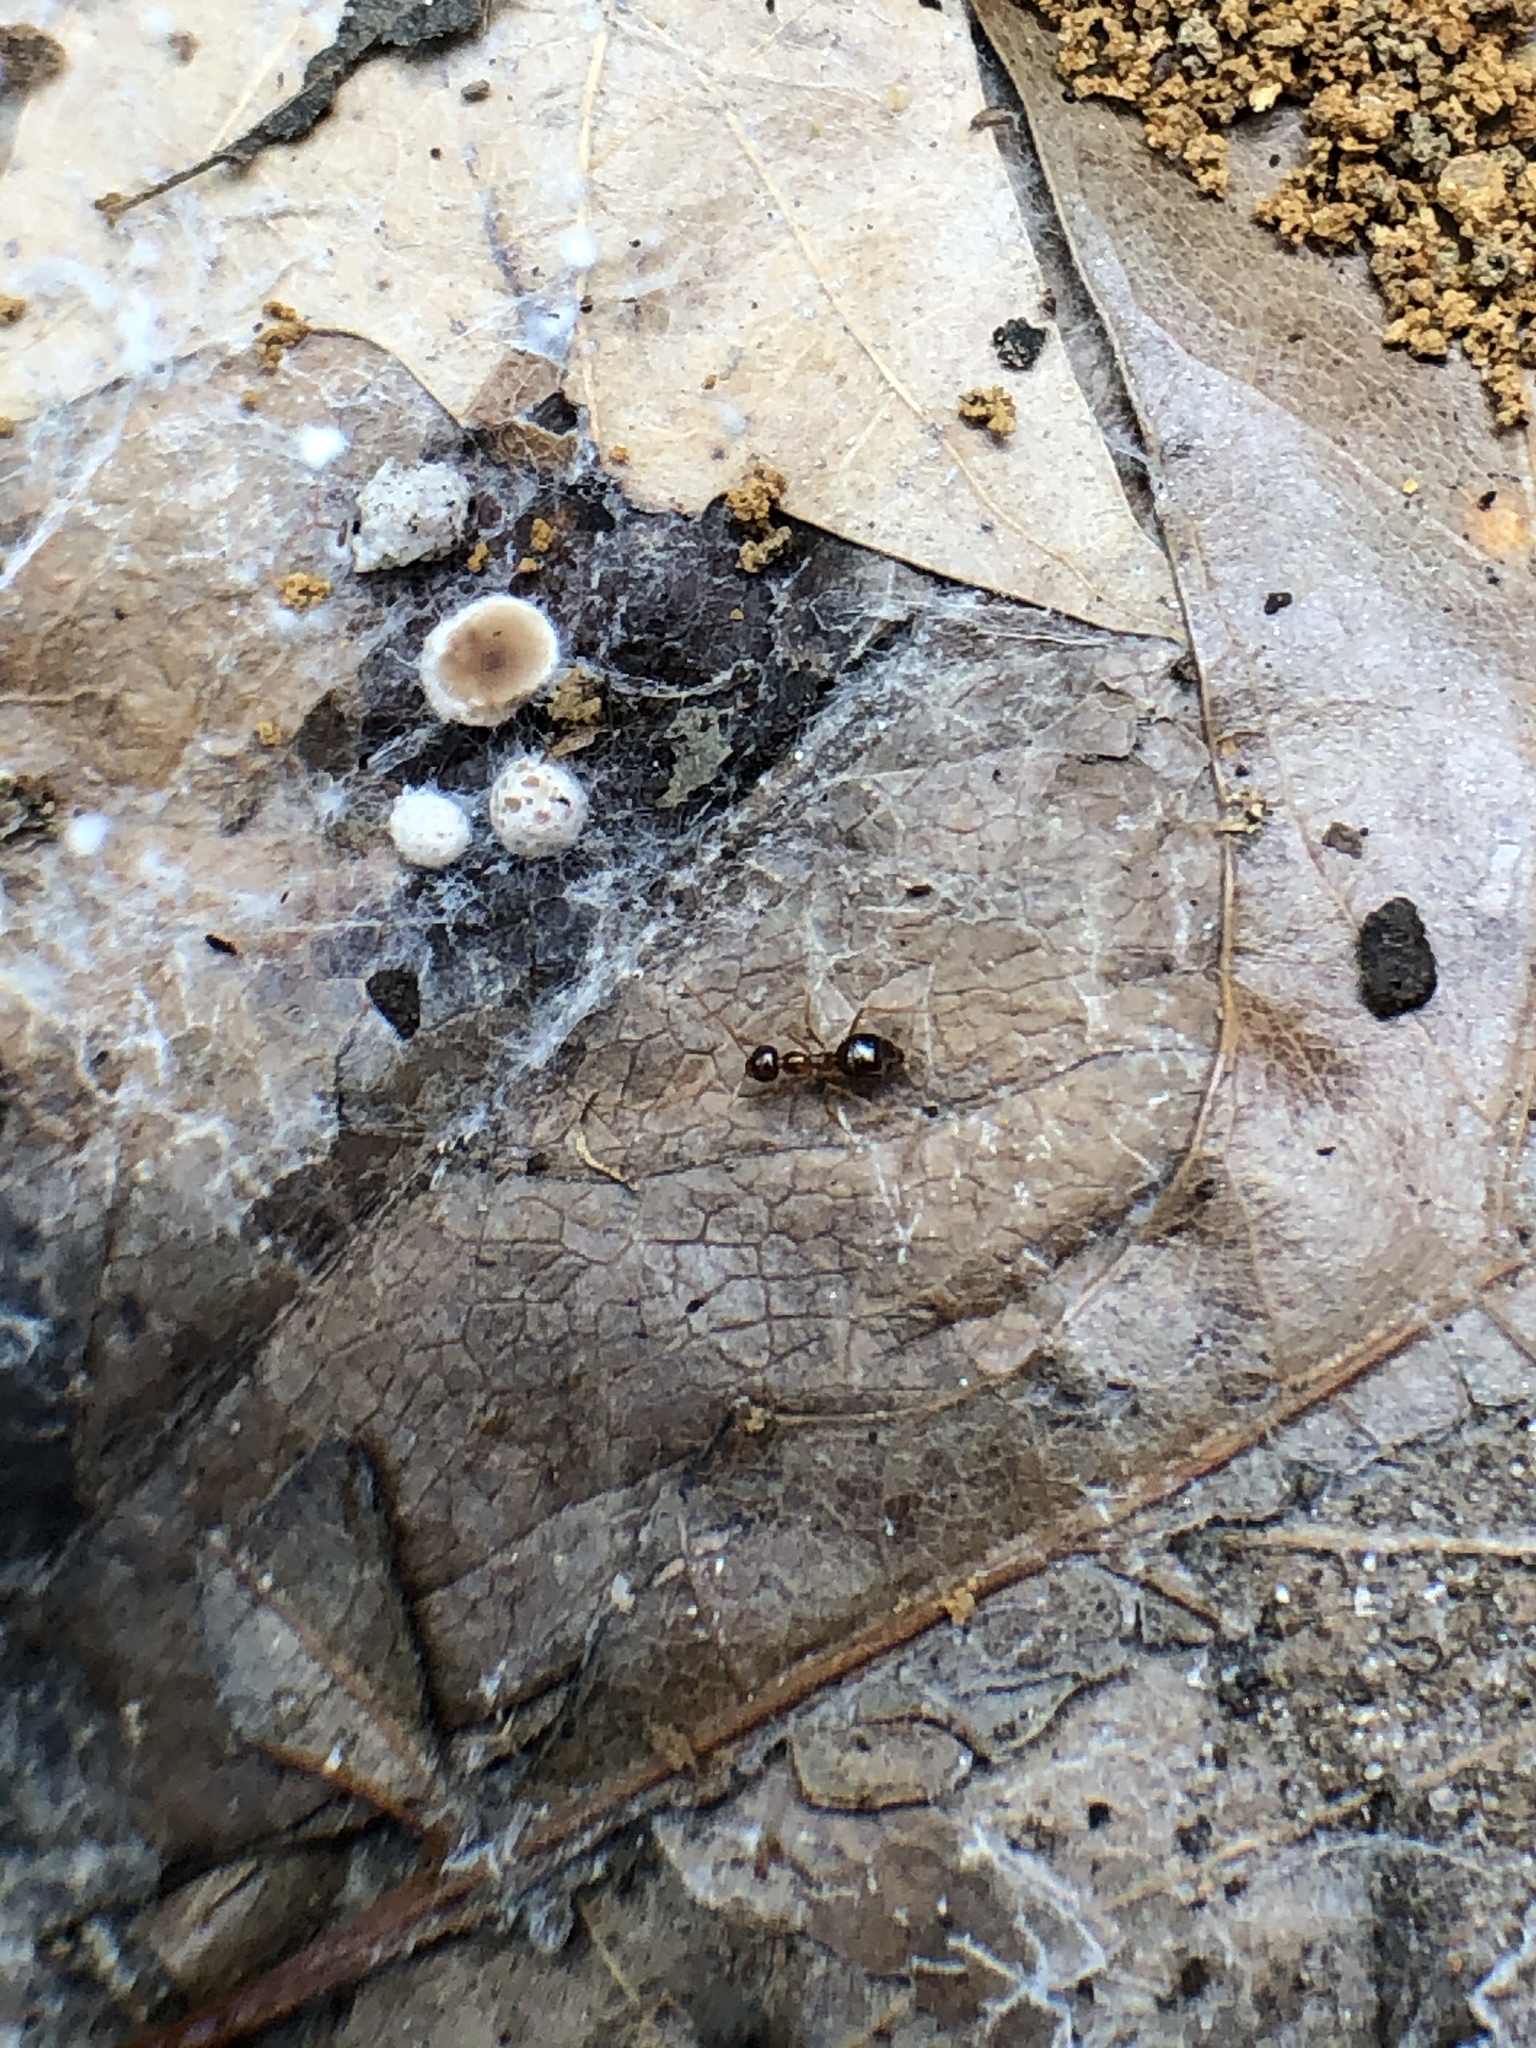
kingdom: Animalia
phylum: Arthropoda
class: Insecta
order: Hymenoptera
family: Formicidae
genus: Prenolepis
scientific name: Prenolepis imparis
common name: Small honey ant
